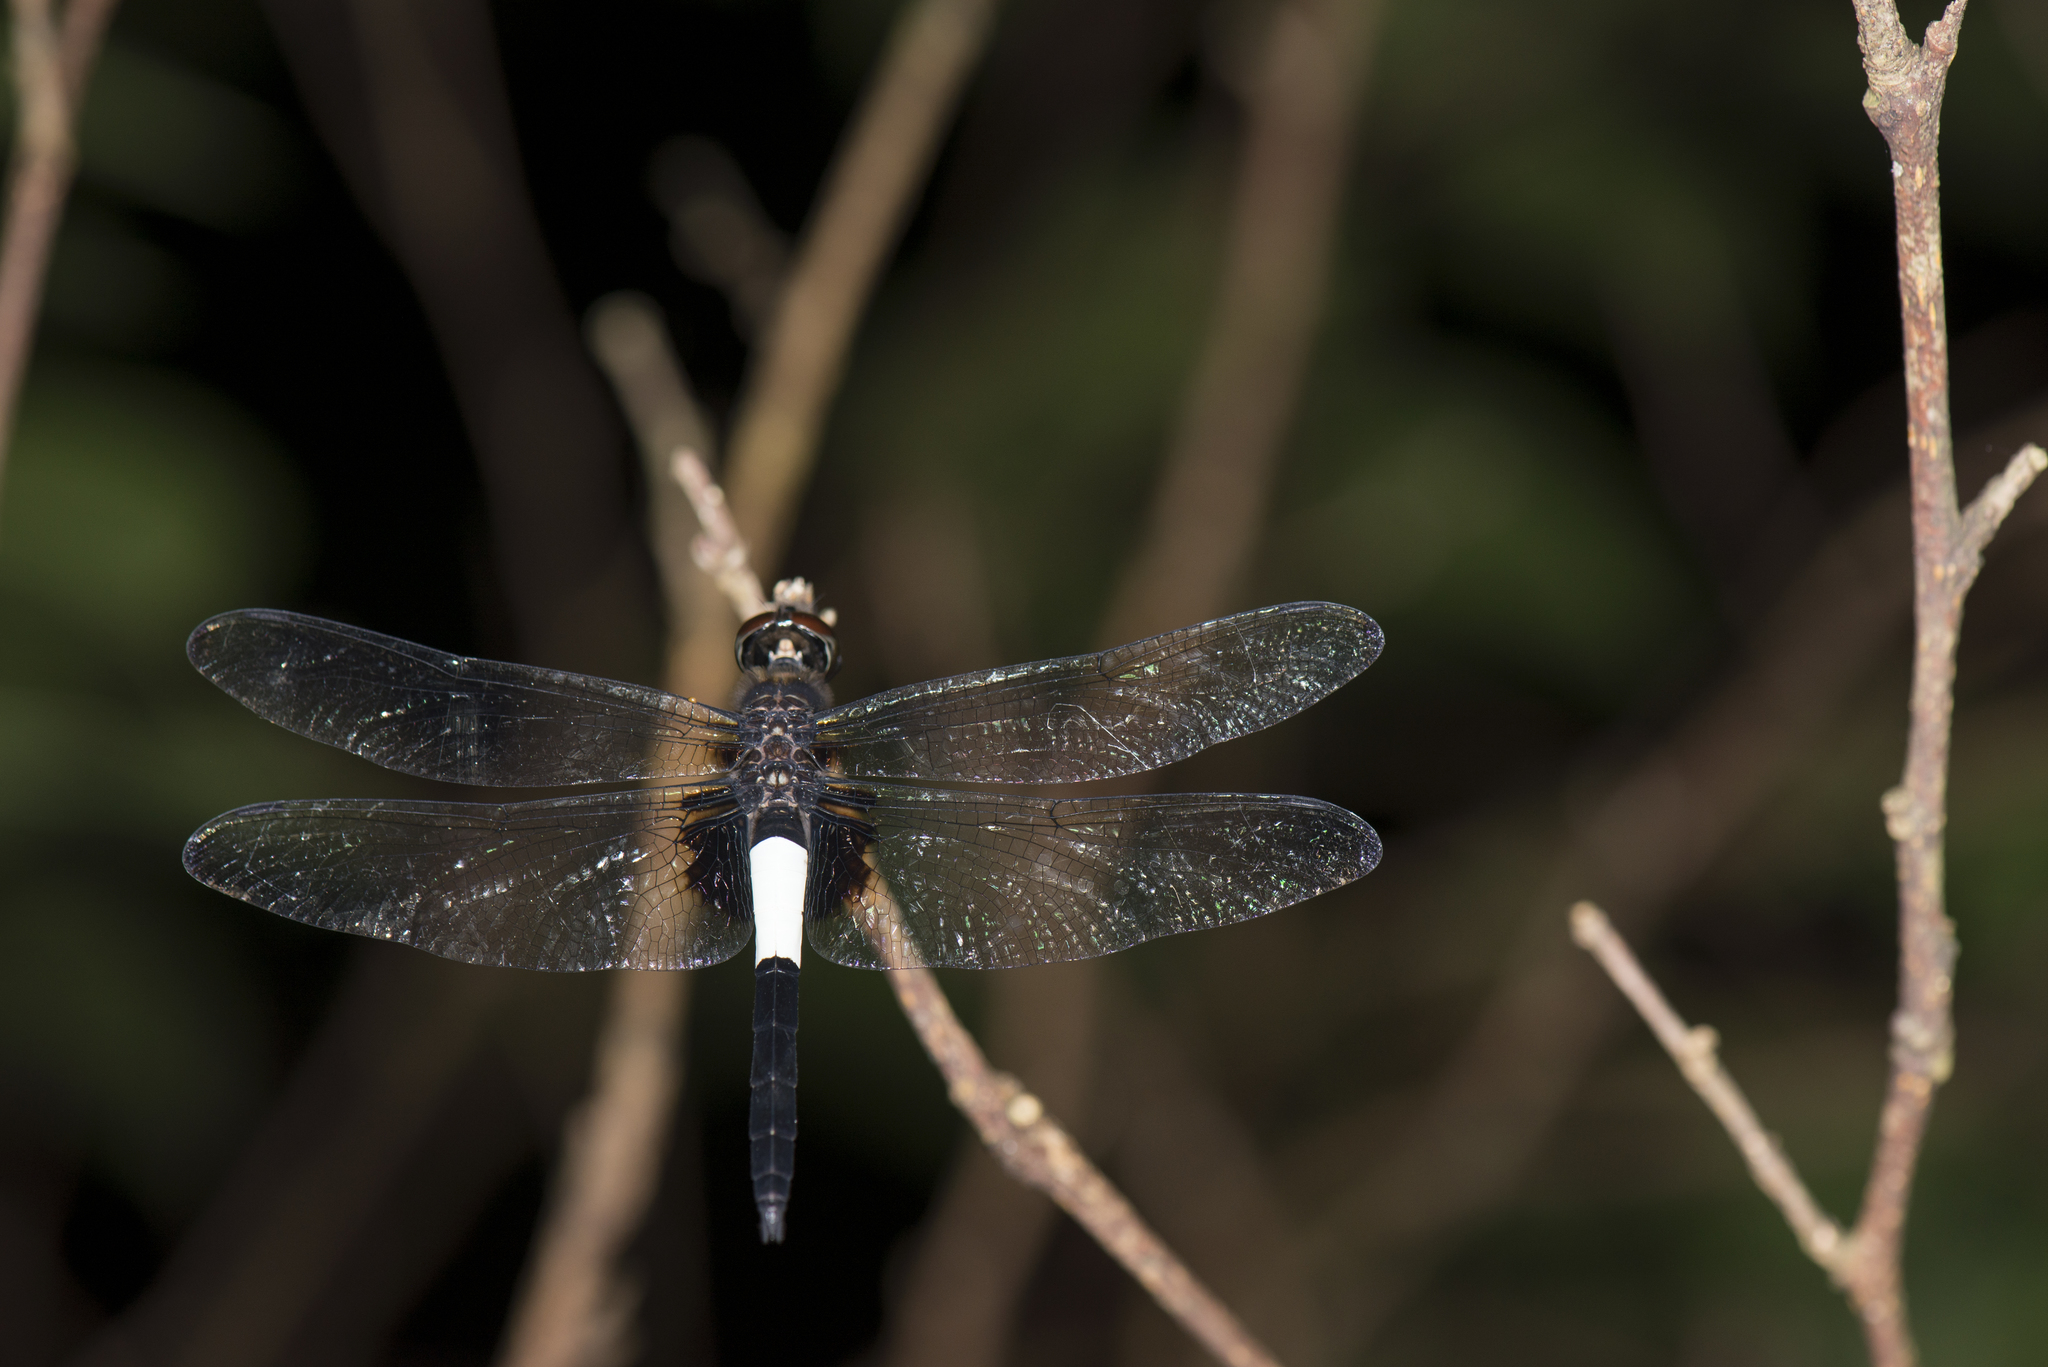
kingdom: Animalia
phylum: Arthropoda
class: Insecta
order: Odonata
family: Libellulidae
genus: Pseudothemis
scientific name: Pseudothemis zonata
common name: Pied skimmer
